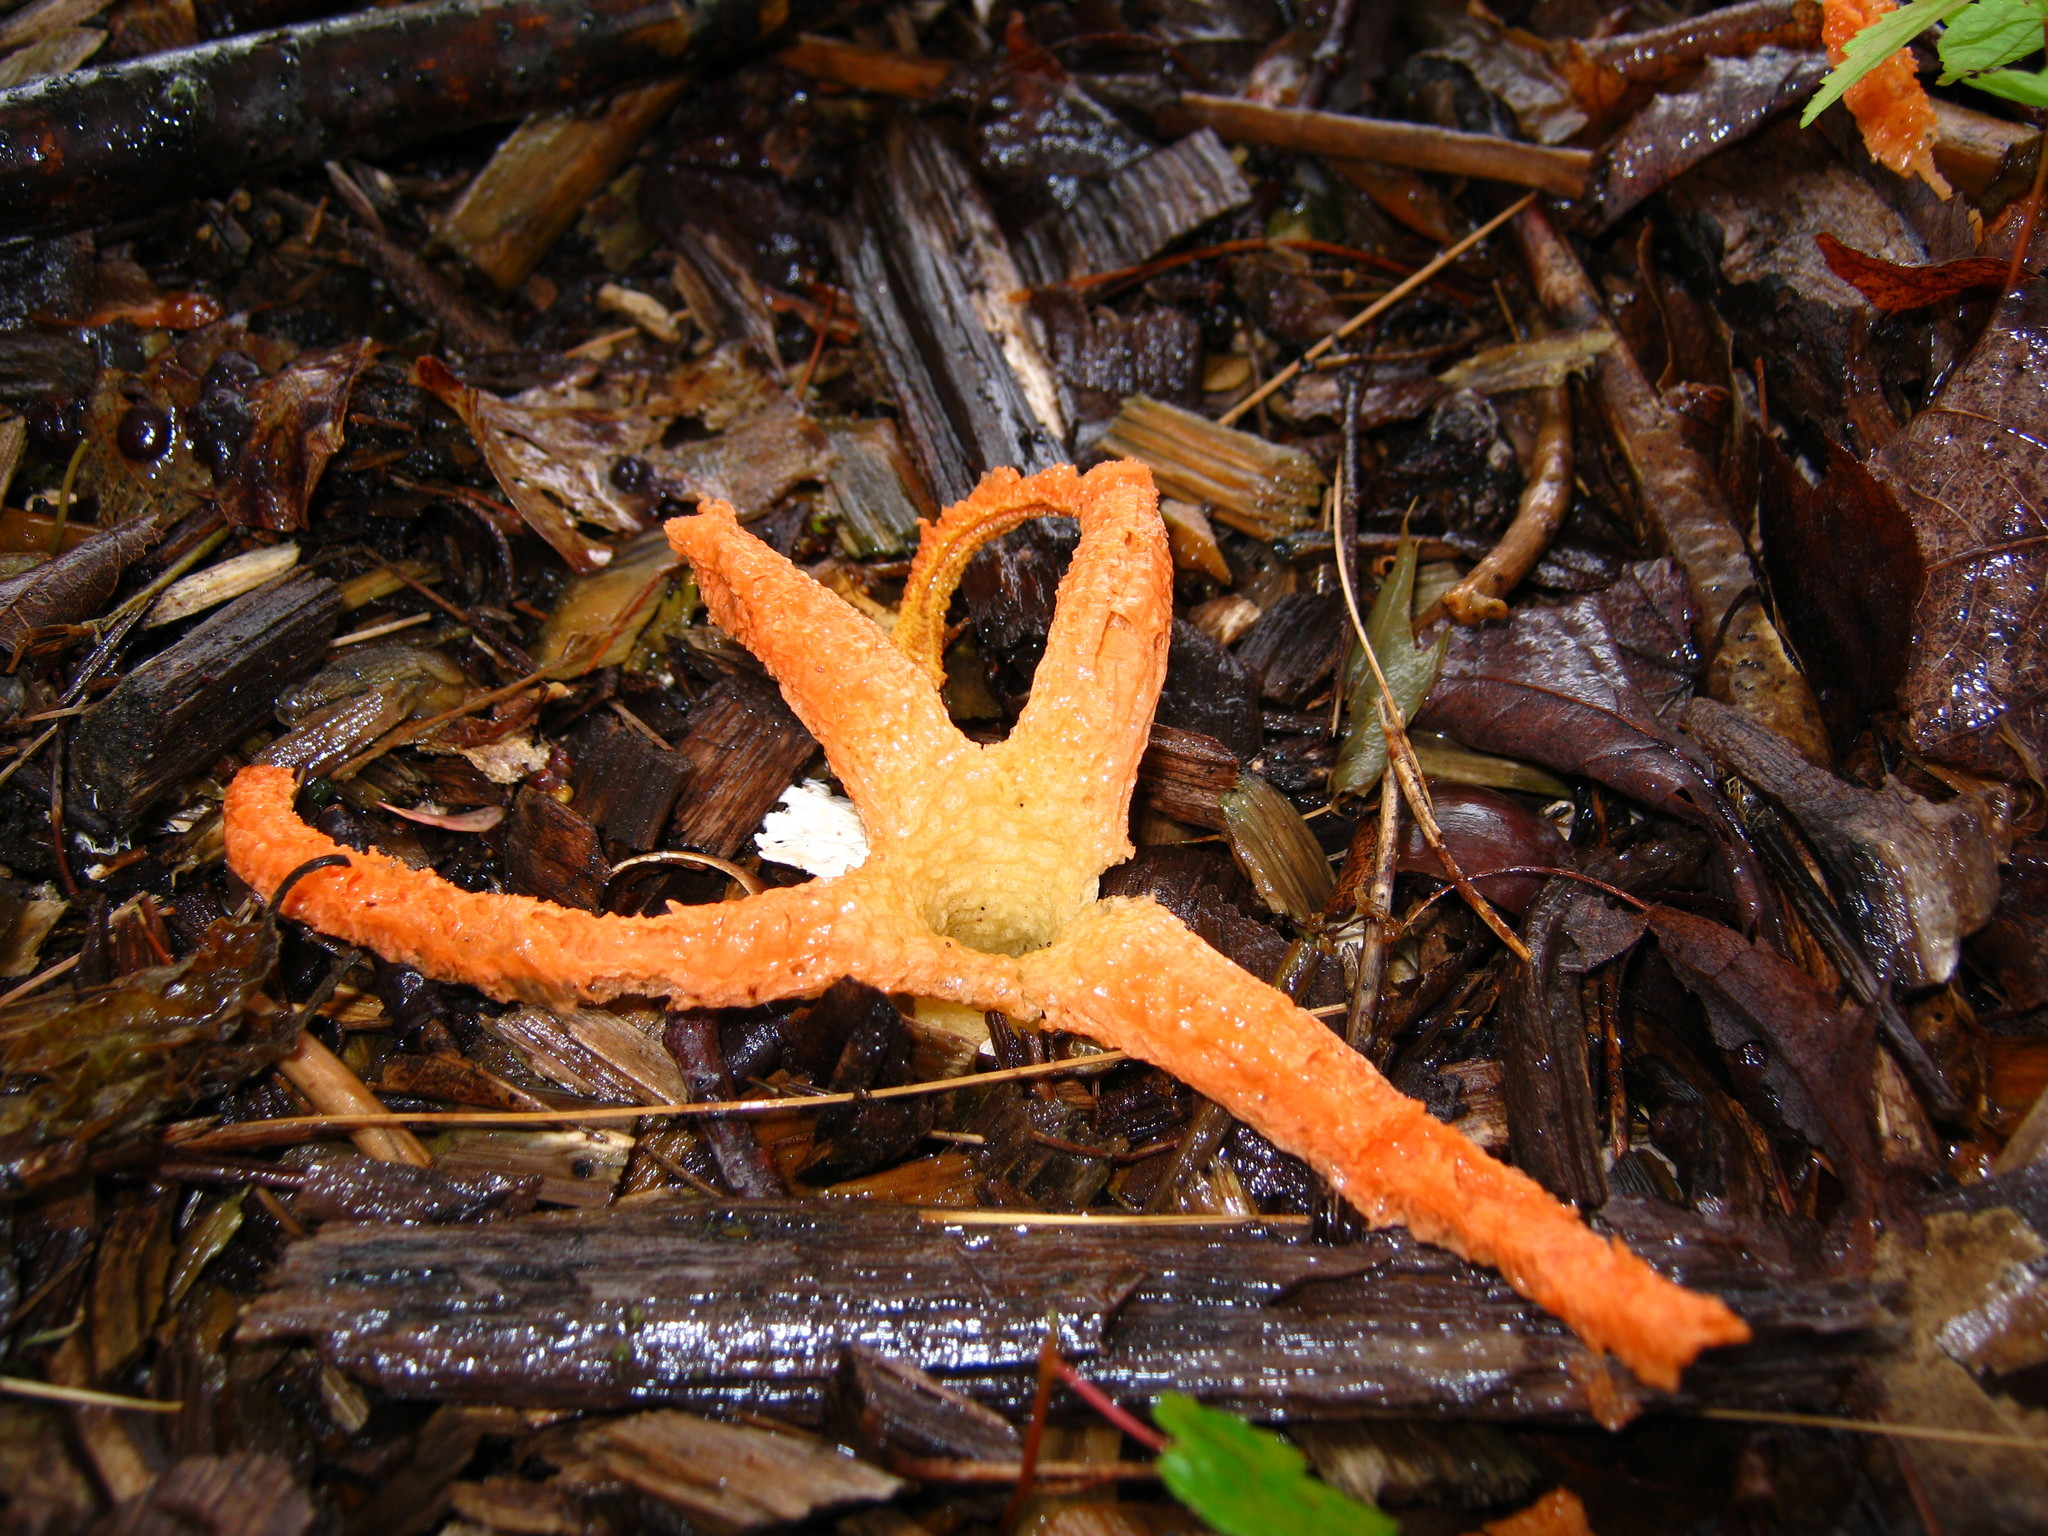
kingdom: Fungi
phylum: Basidiomycota
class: Agaricomycetes
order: Phallales
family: Phallaceae
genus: Pseudocolus
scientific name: Pseudocolus fusiformis
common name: Stinky squid
